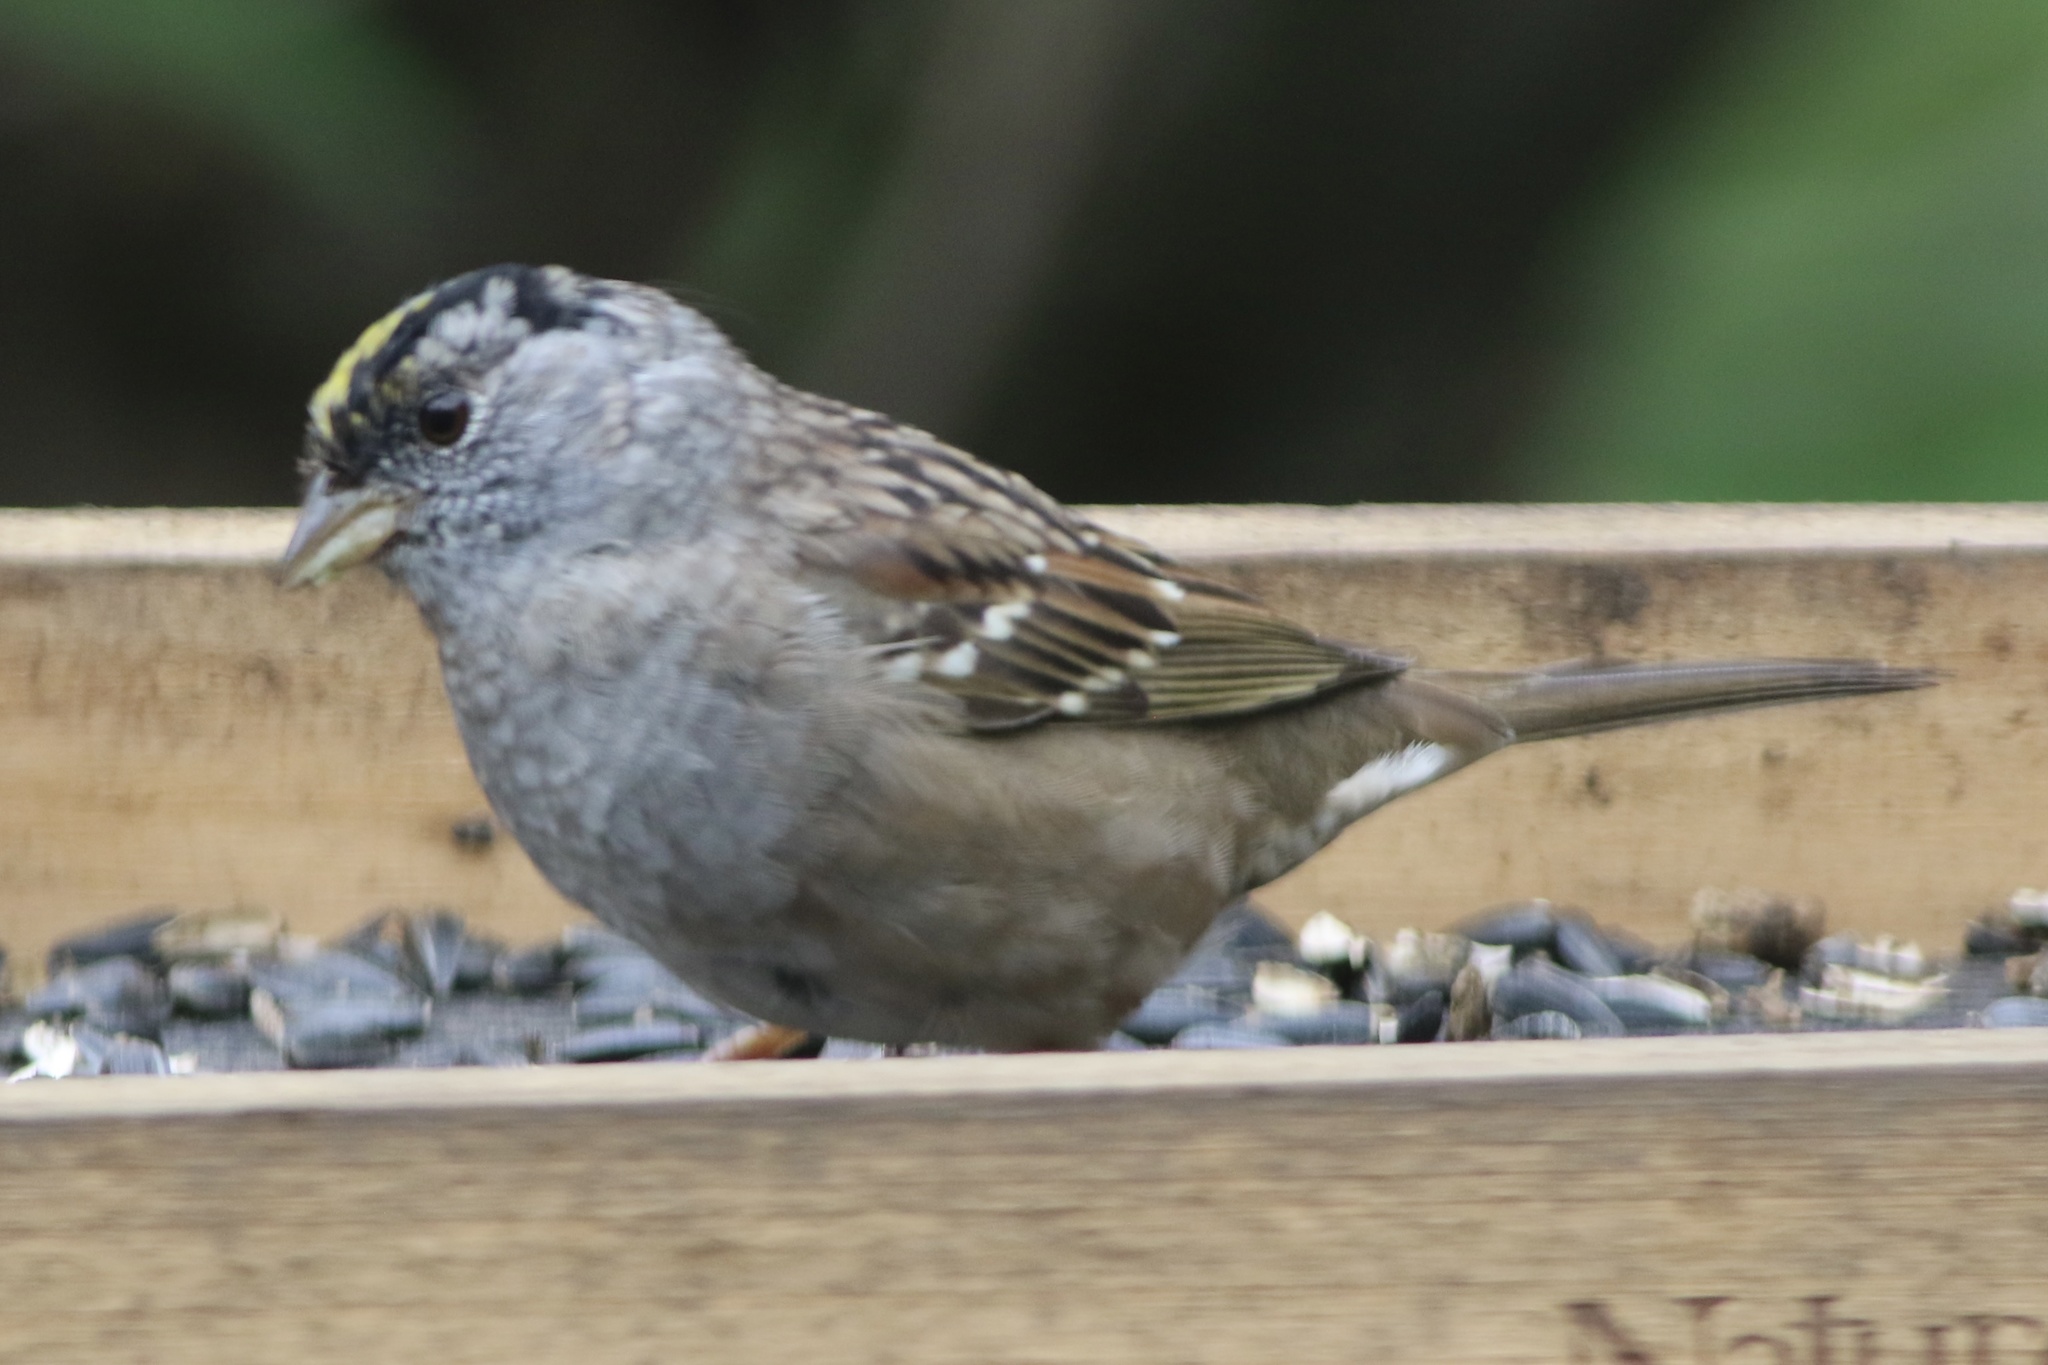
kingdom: Animalia
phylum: Chordata
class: Aves
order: Passeriformes
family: Passerellidae
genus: Zonotrichia
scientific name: Zonotrichia atricapilla
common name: Golden-crowned sparrow
